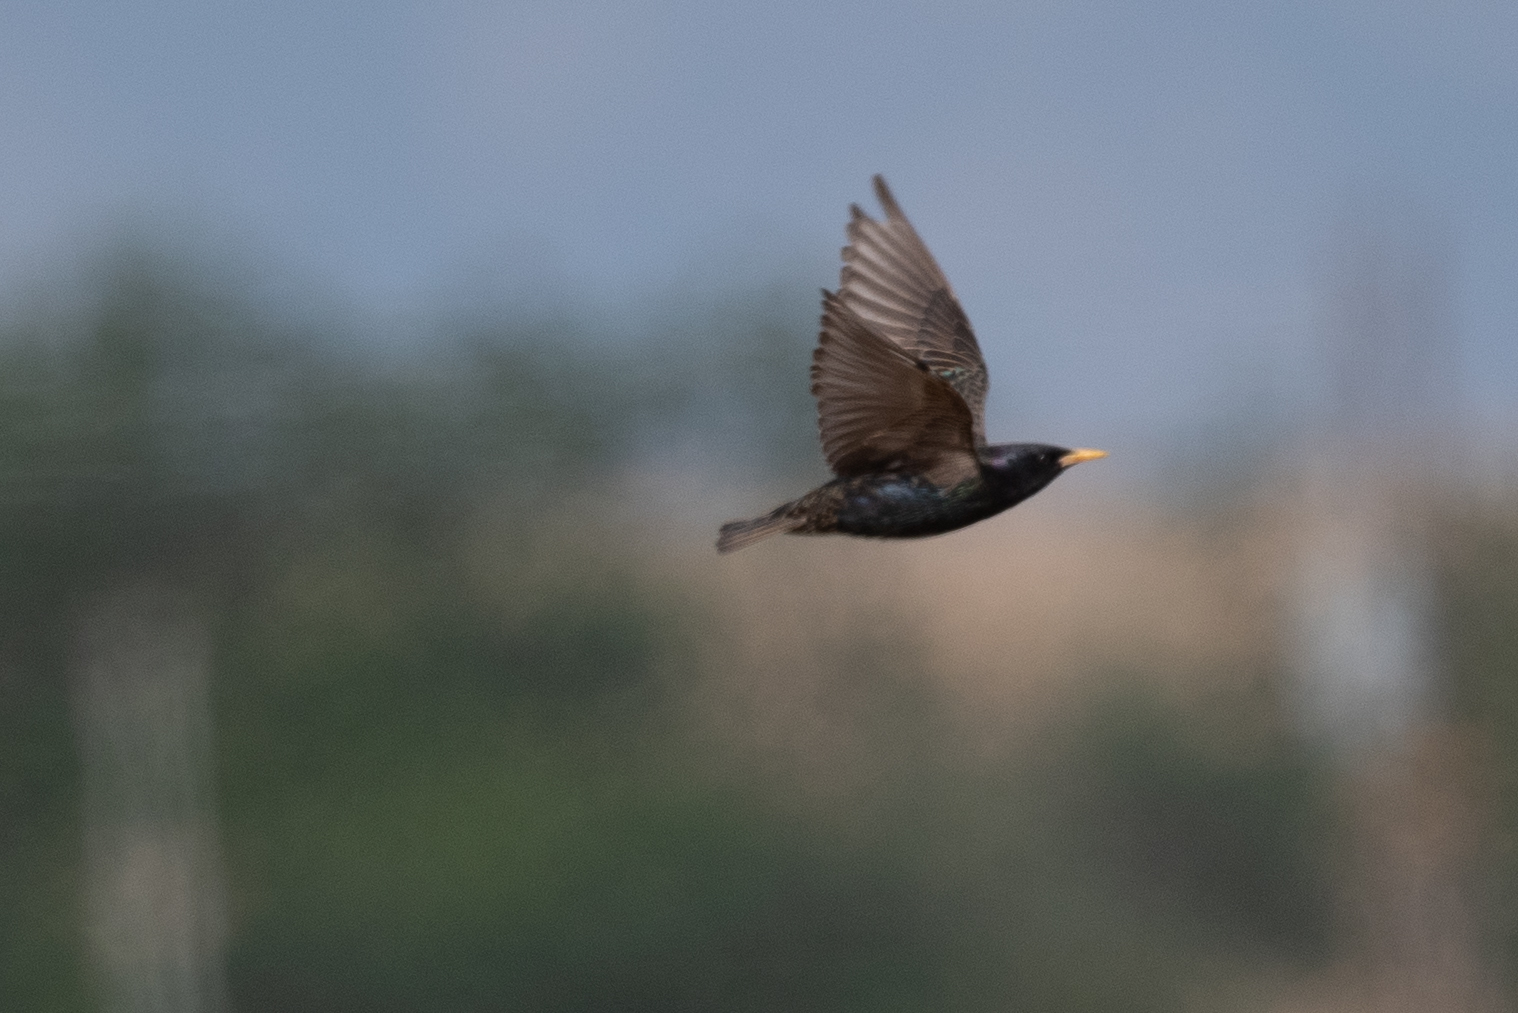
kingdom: Animalia
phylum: Chordata
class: Aves
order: Passeriformes
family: Sturnidae
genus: Sturnus
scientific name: Sturnus vulgaris
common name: Common starling
